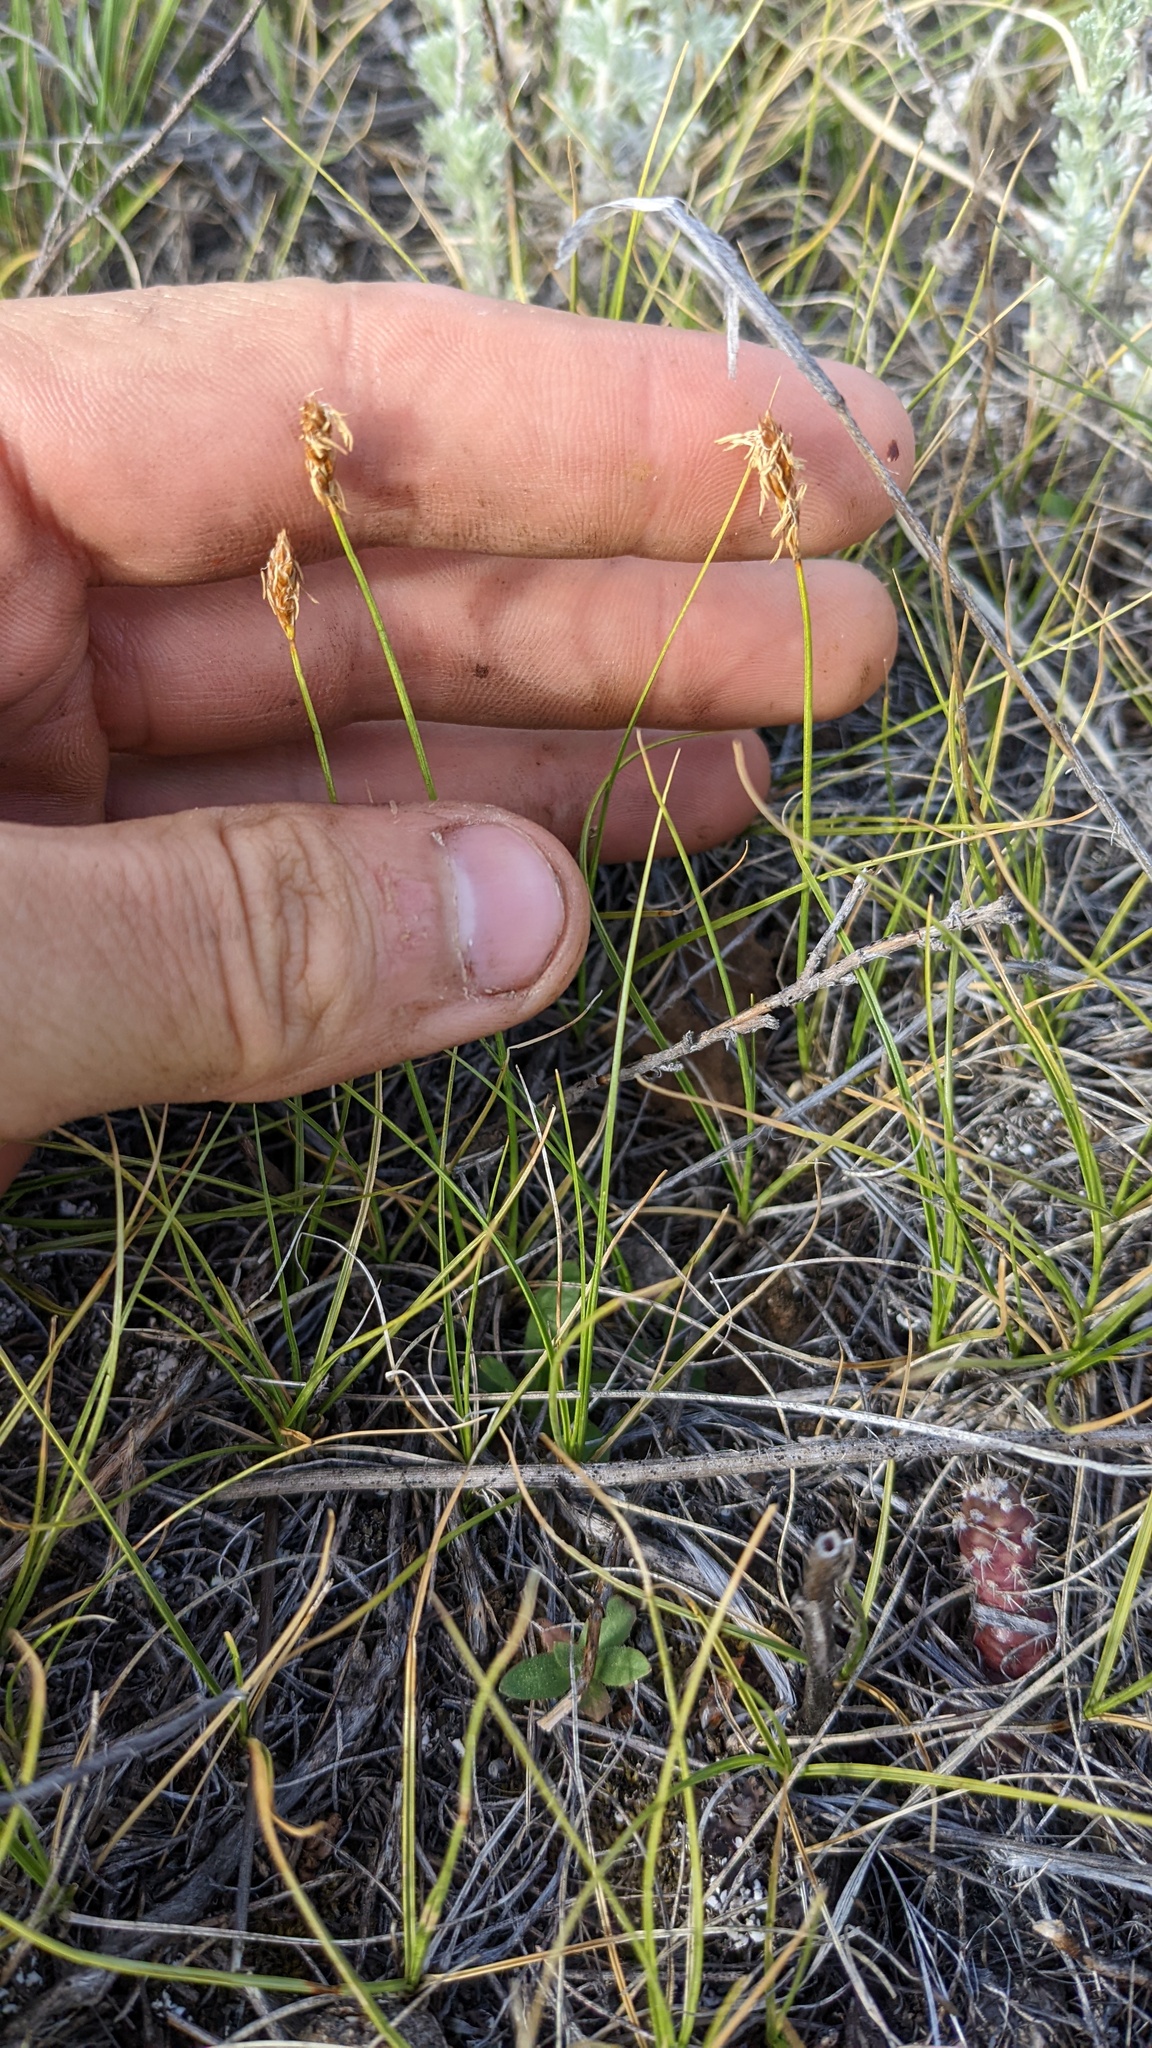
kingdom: Plantae
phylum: Tracheophyta
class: Liliopsida
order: Poales
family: Cyperaceae
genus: Carex
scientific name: Carex duriuscula
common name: Involute-leaved sedge
